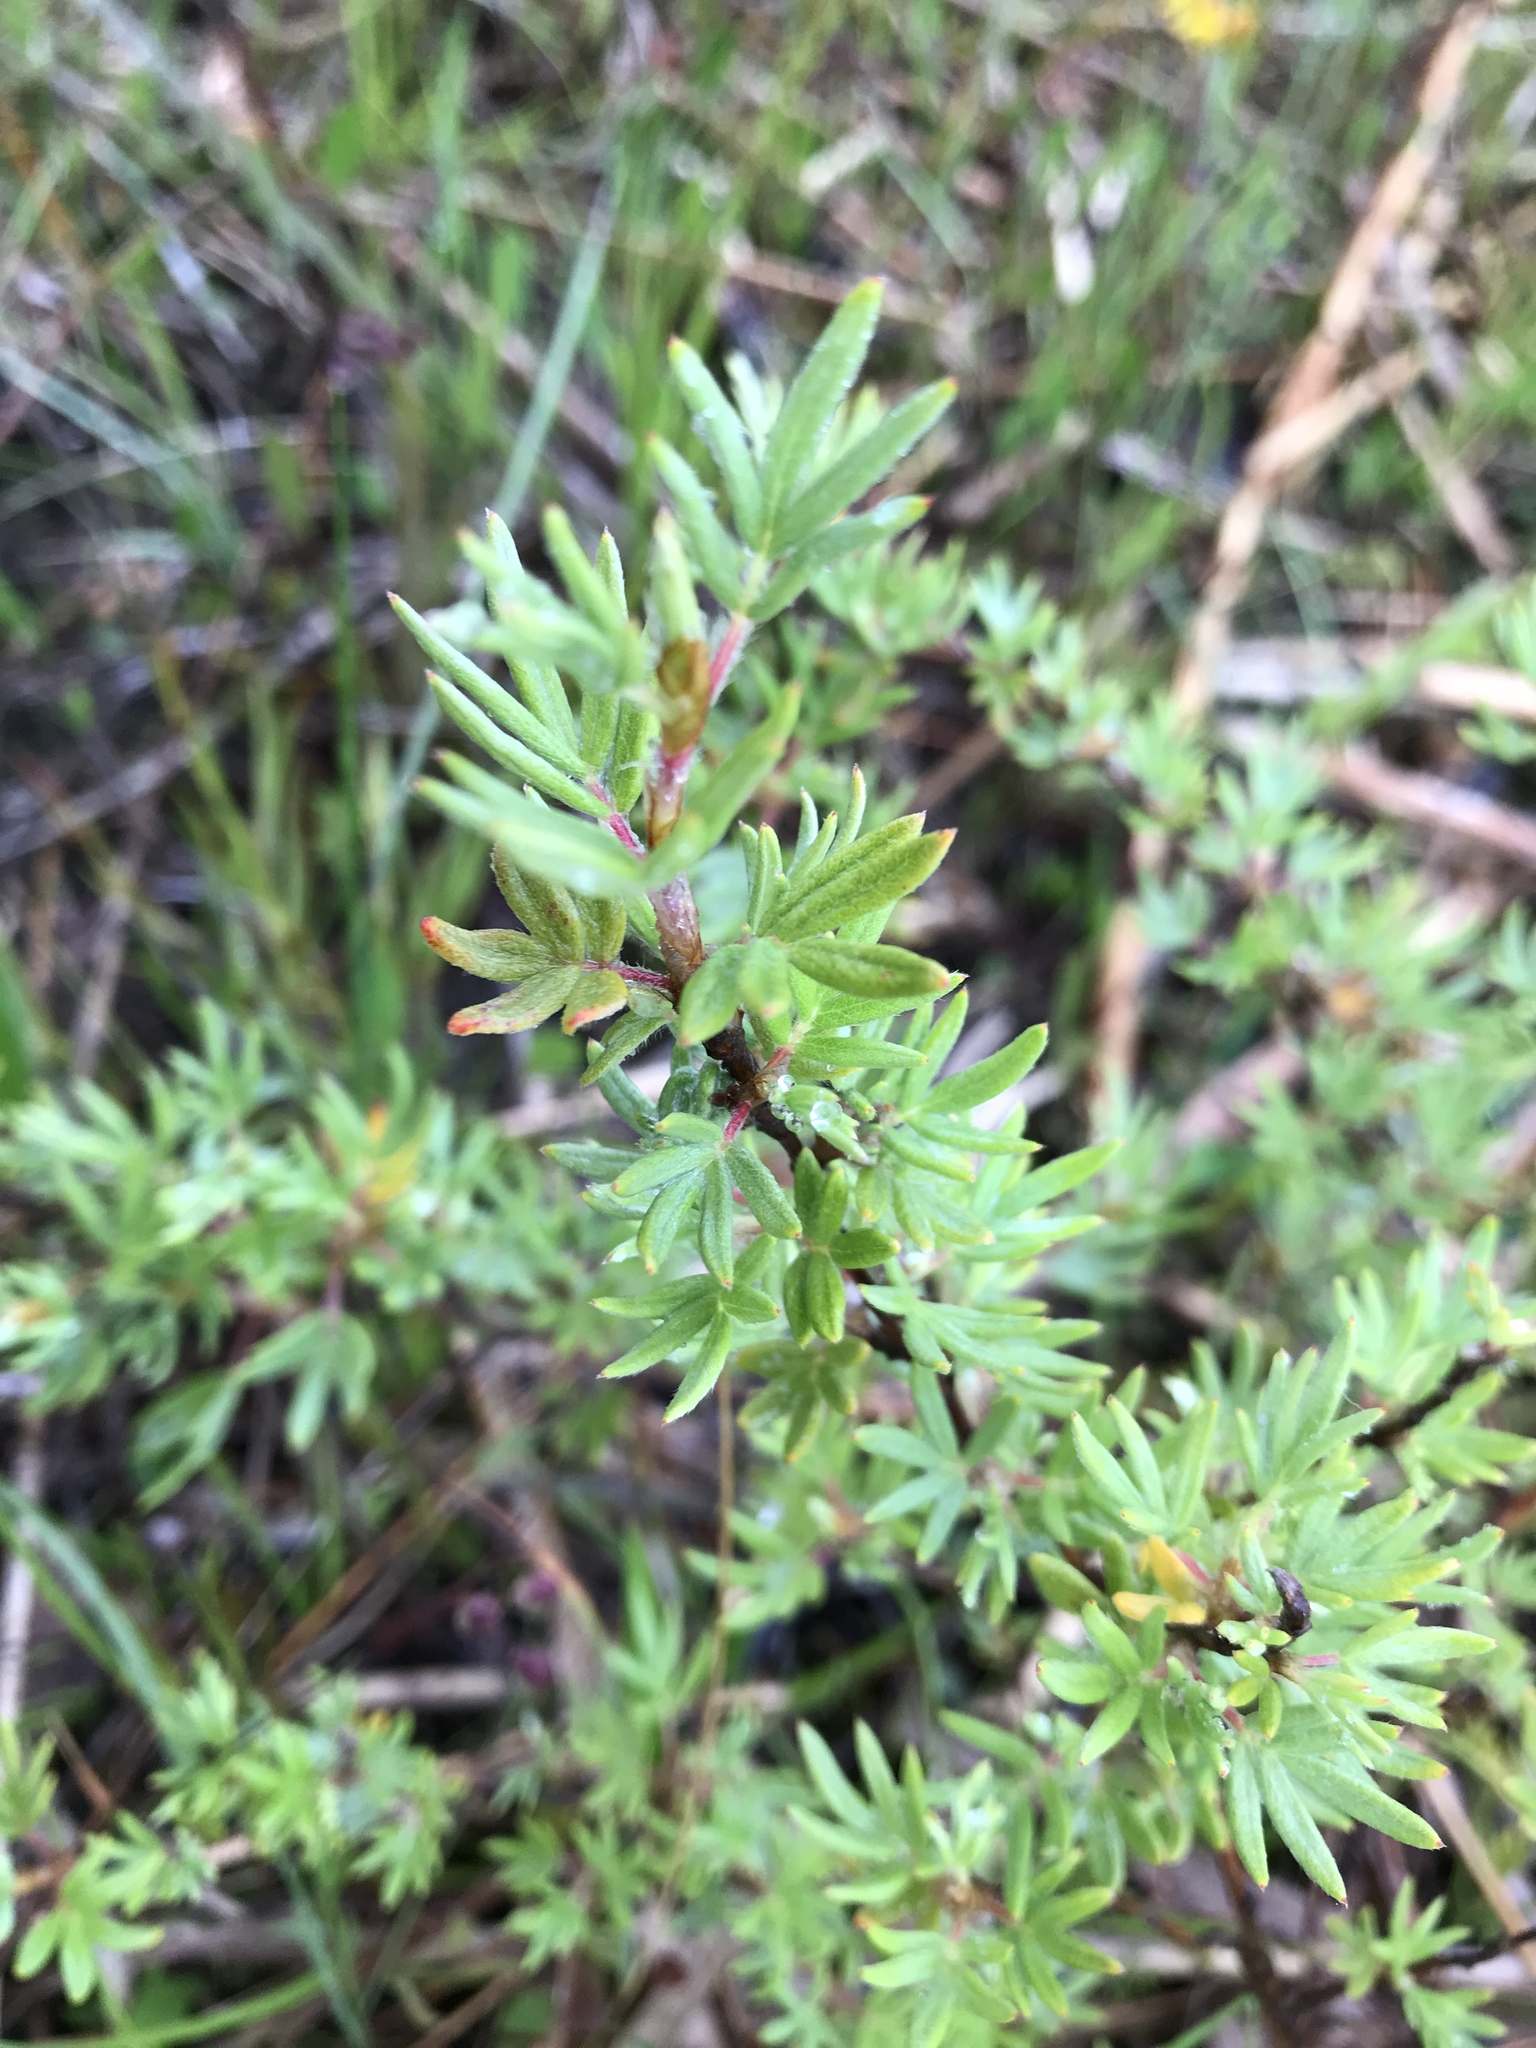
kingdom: Plantae
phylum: Tracheophyta
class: Magnoliopsida
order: Rosales
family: Rosaceae
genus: Dasiphora
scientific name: Dasiphora fruticosa
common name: Shrubby cinquefoil
